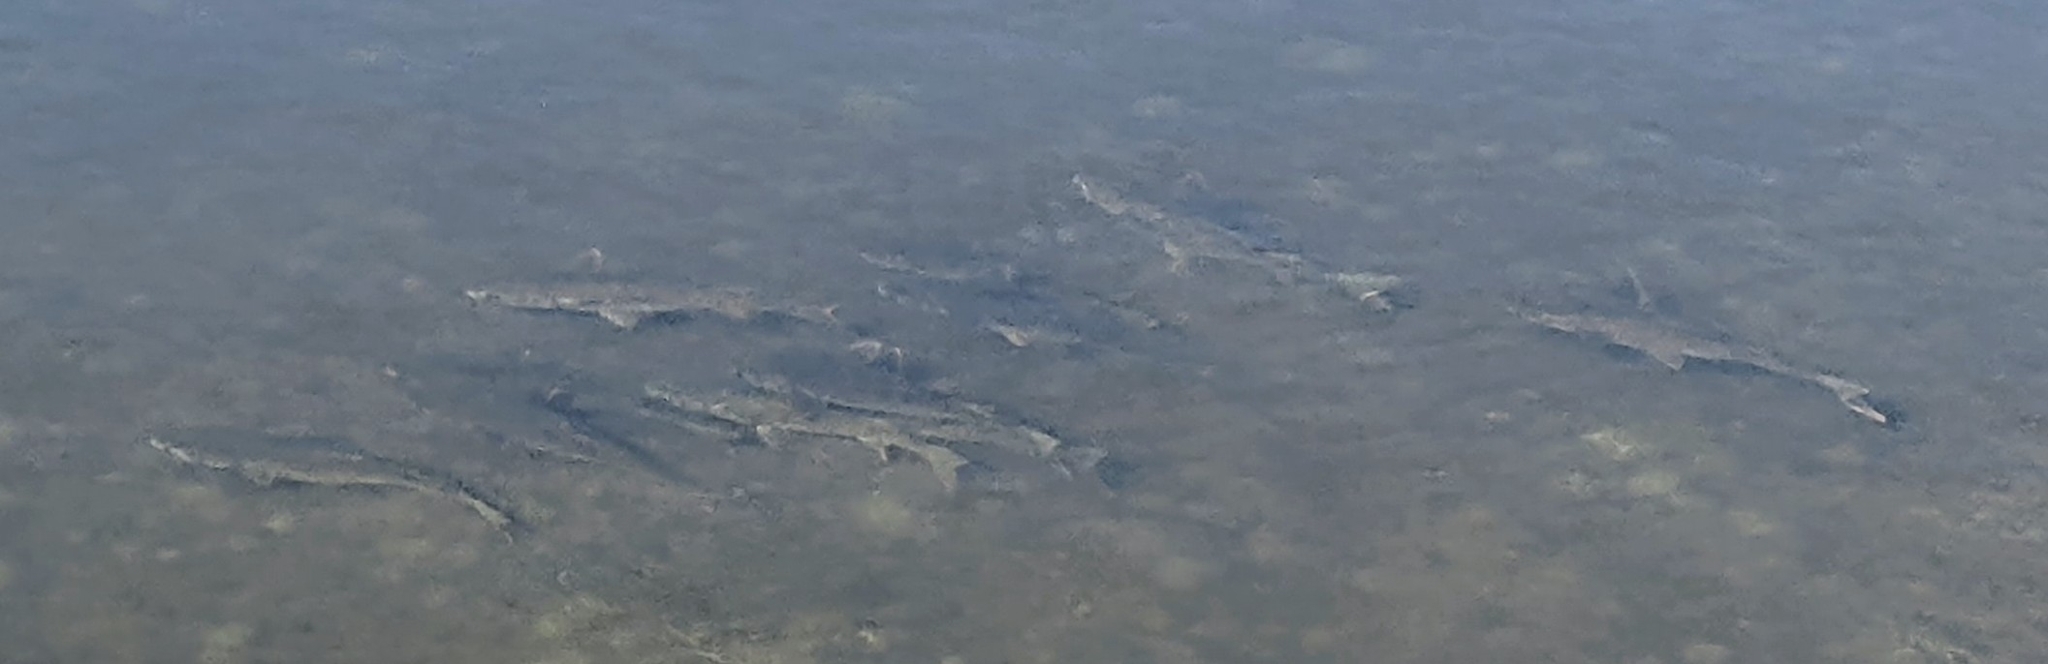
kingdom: Animalia
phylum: Chordata
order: Mugiliformes
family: Mugilidae
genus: Mugil
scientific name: Mugil cephalus
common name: Grey mullet
